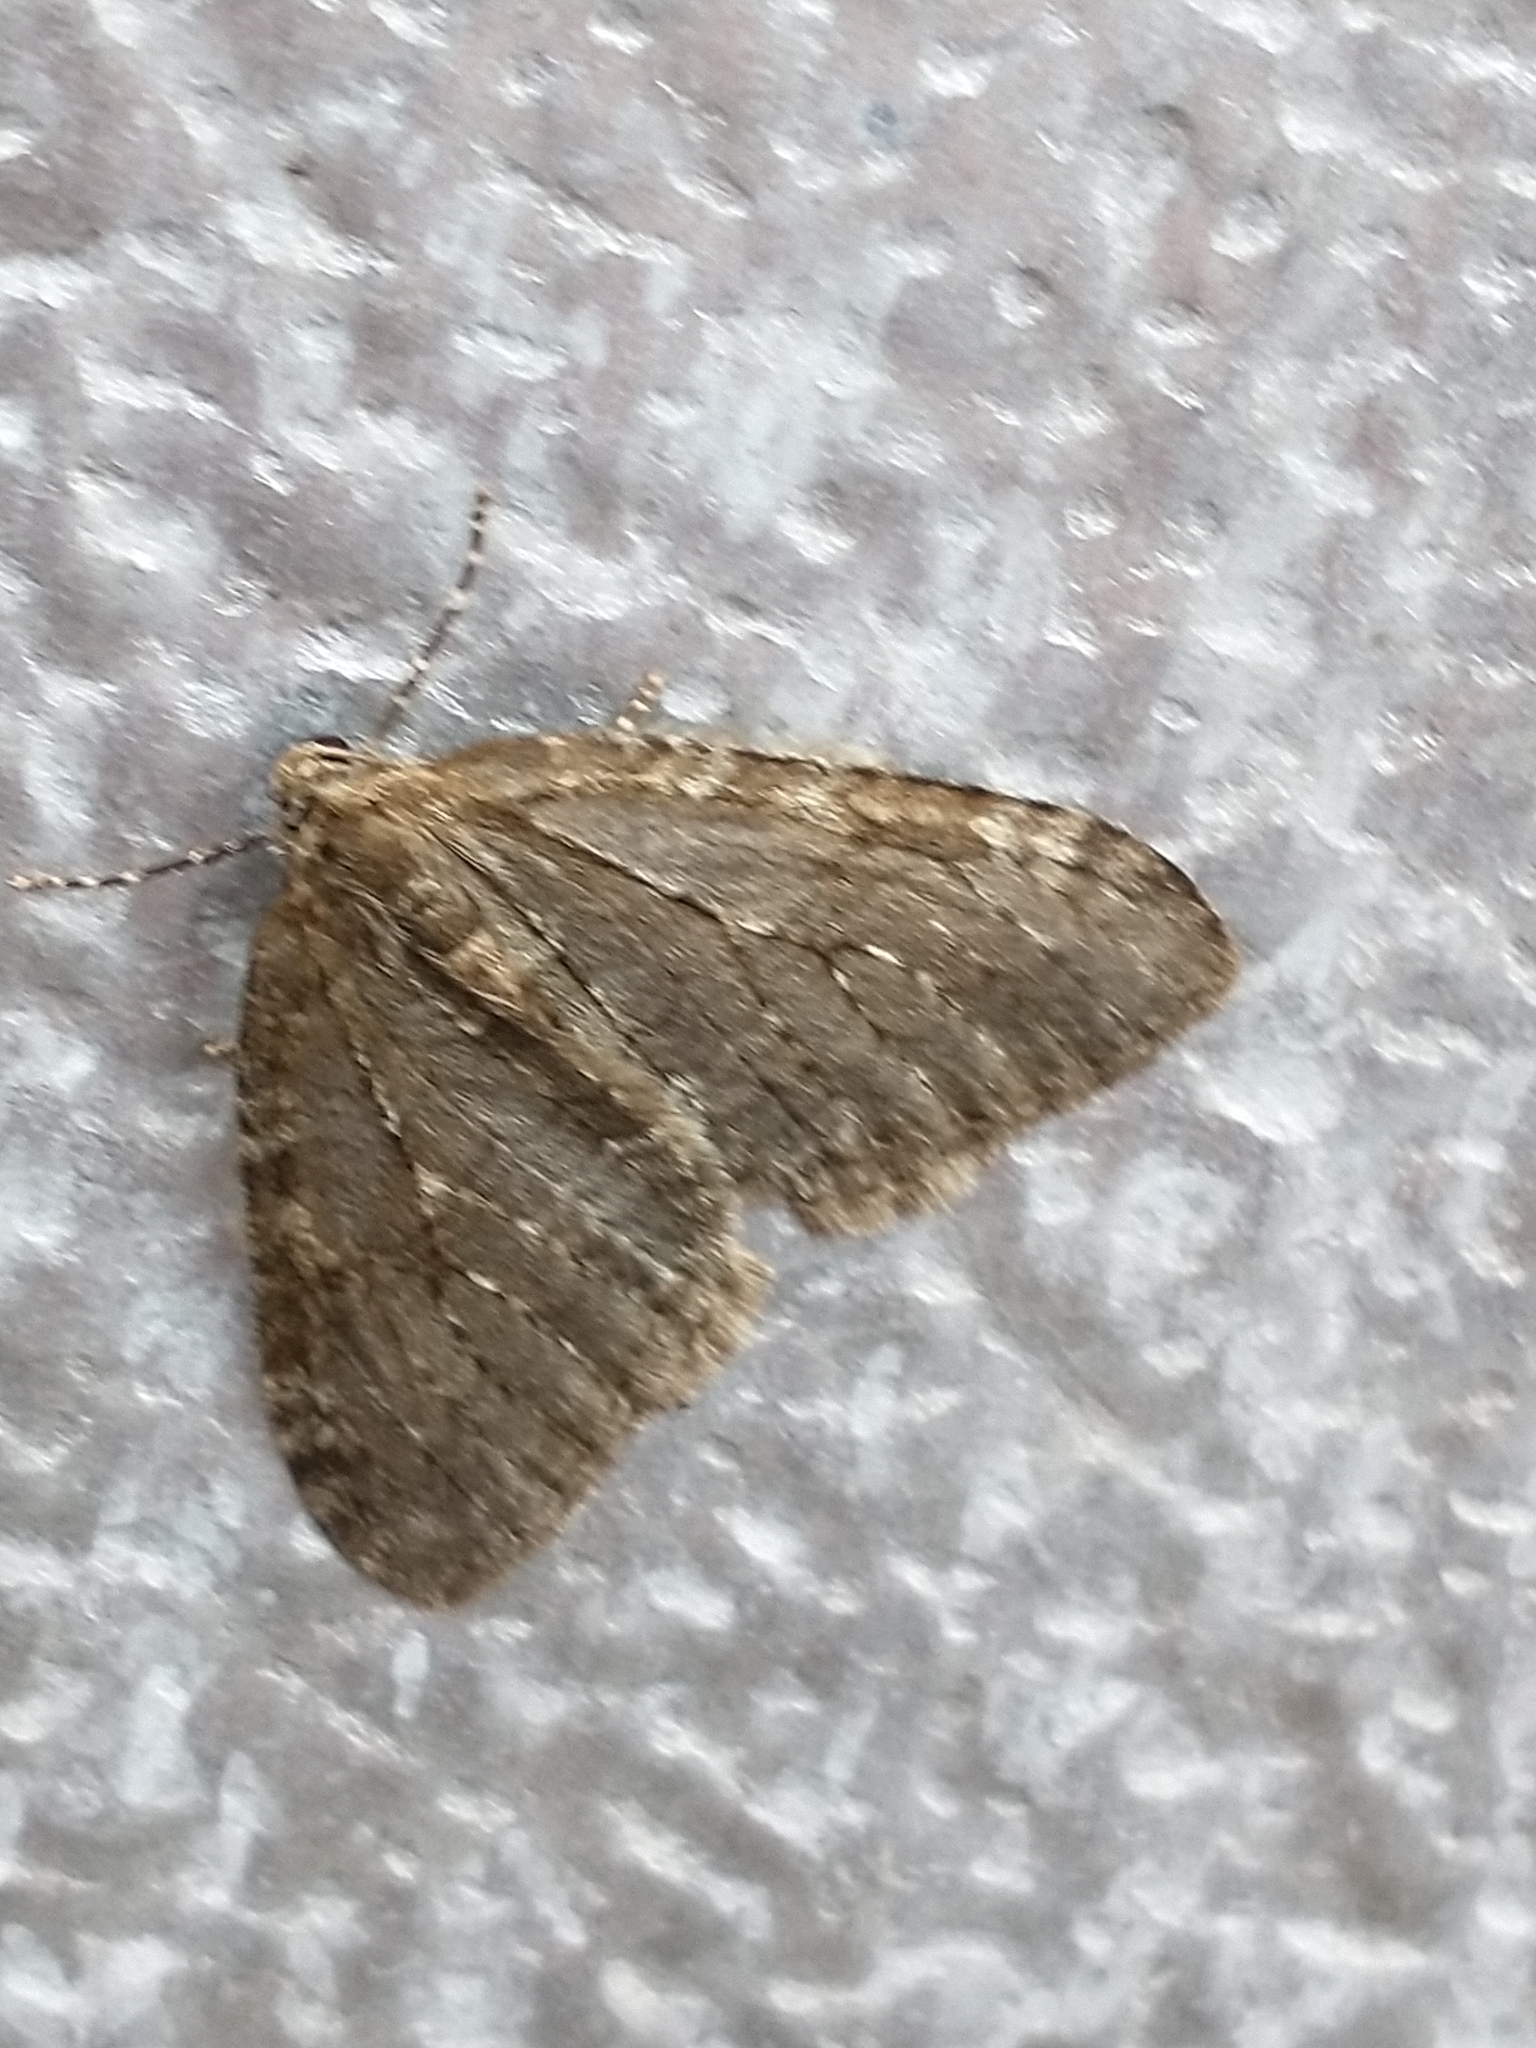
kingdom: Animalia
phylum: Arthropoda
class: Insecta
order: Lepidoptera
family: Geometridae
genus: Epirrita
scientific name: Epirrita
